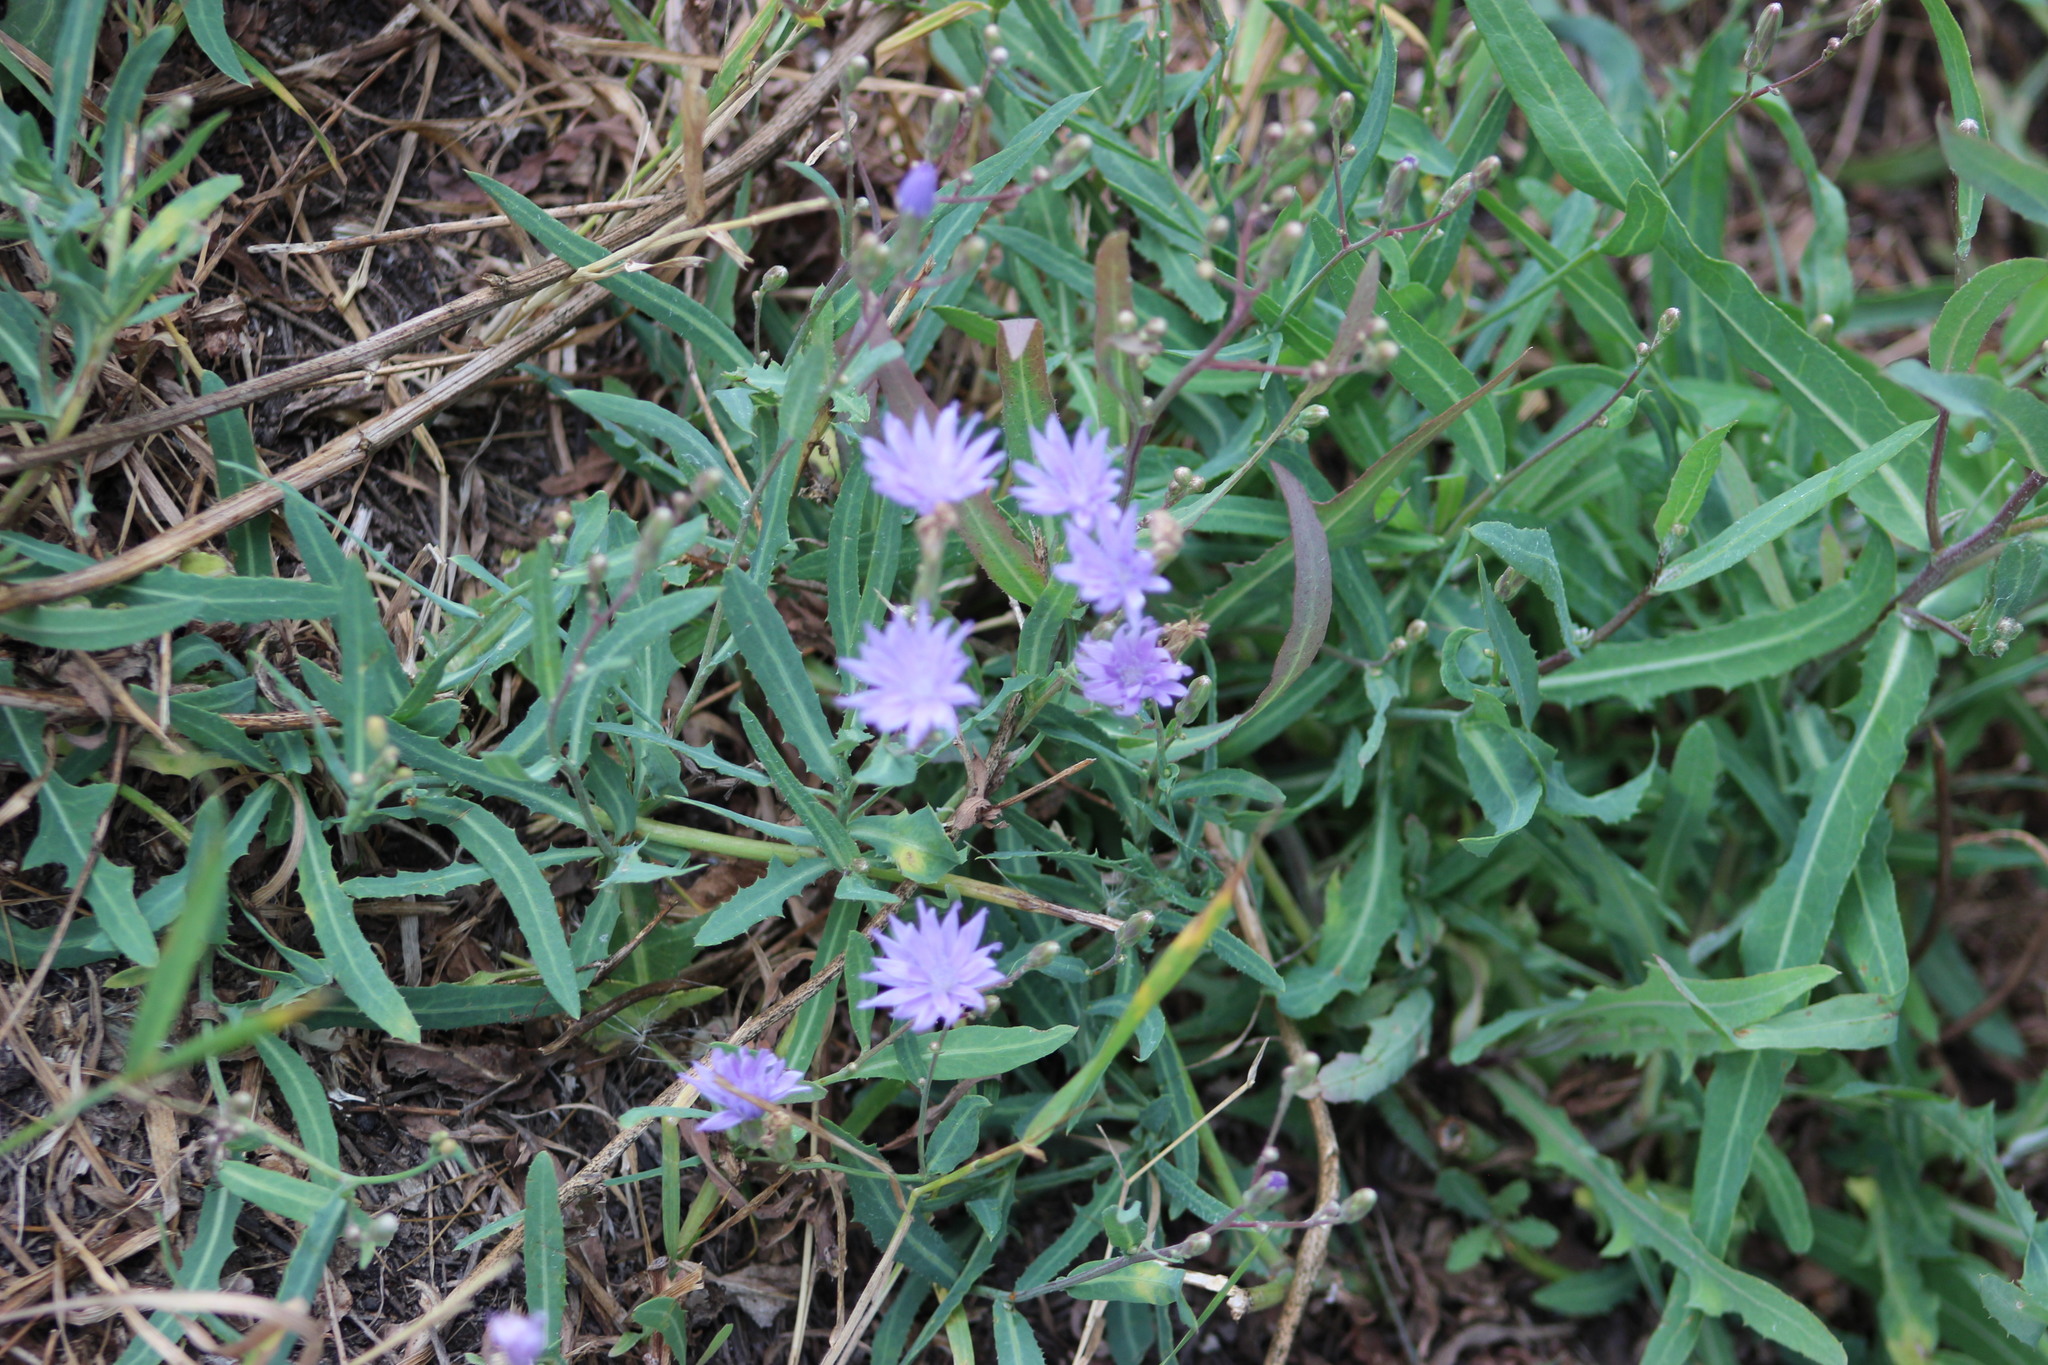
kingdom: Plantae
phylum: Tracheophyta
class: Magnoliopsida
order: Asterales
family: Asteraceae
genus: Lactuca
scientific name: Lactuca tatarica
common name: Blue lettuce
